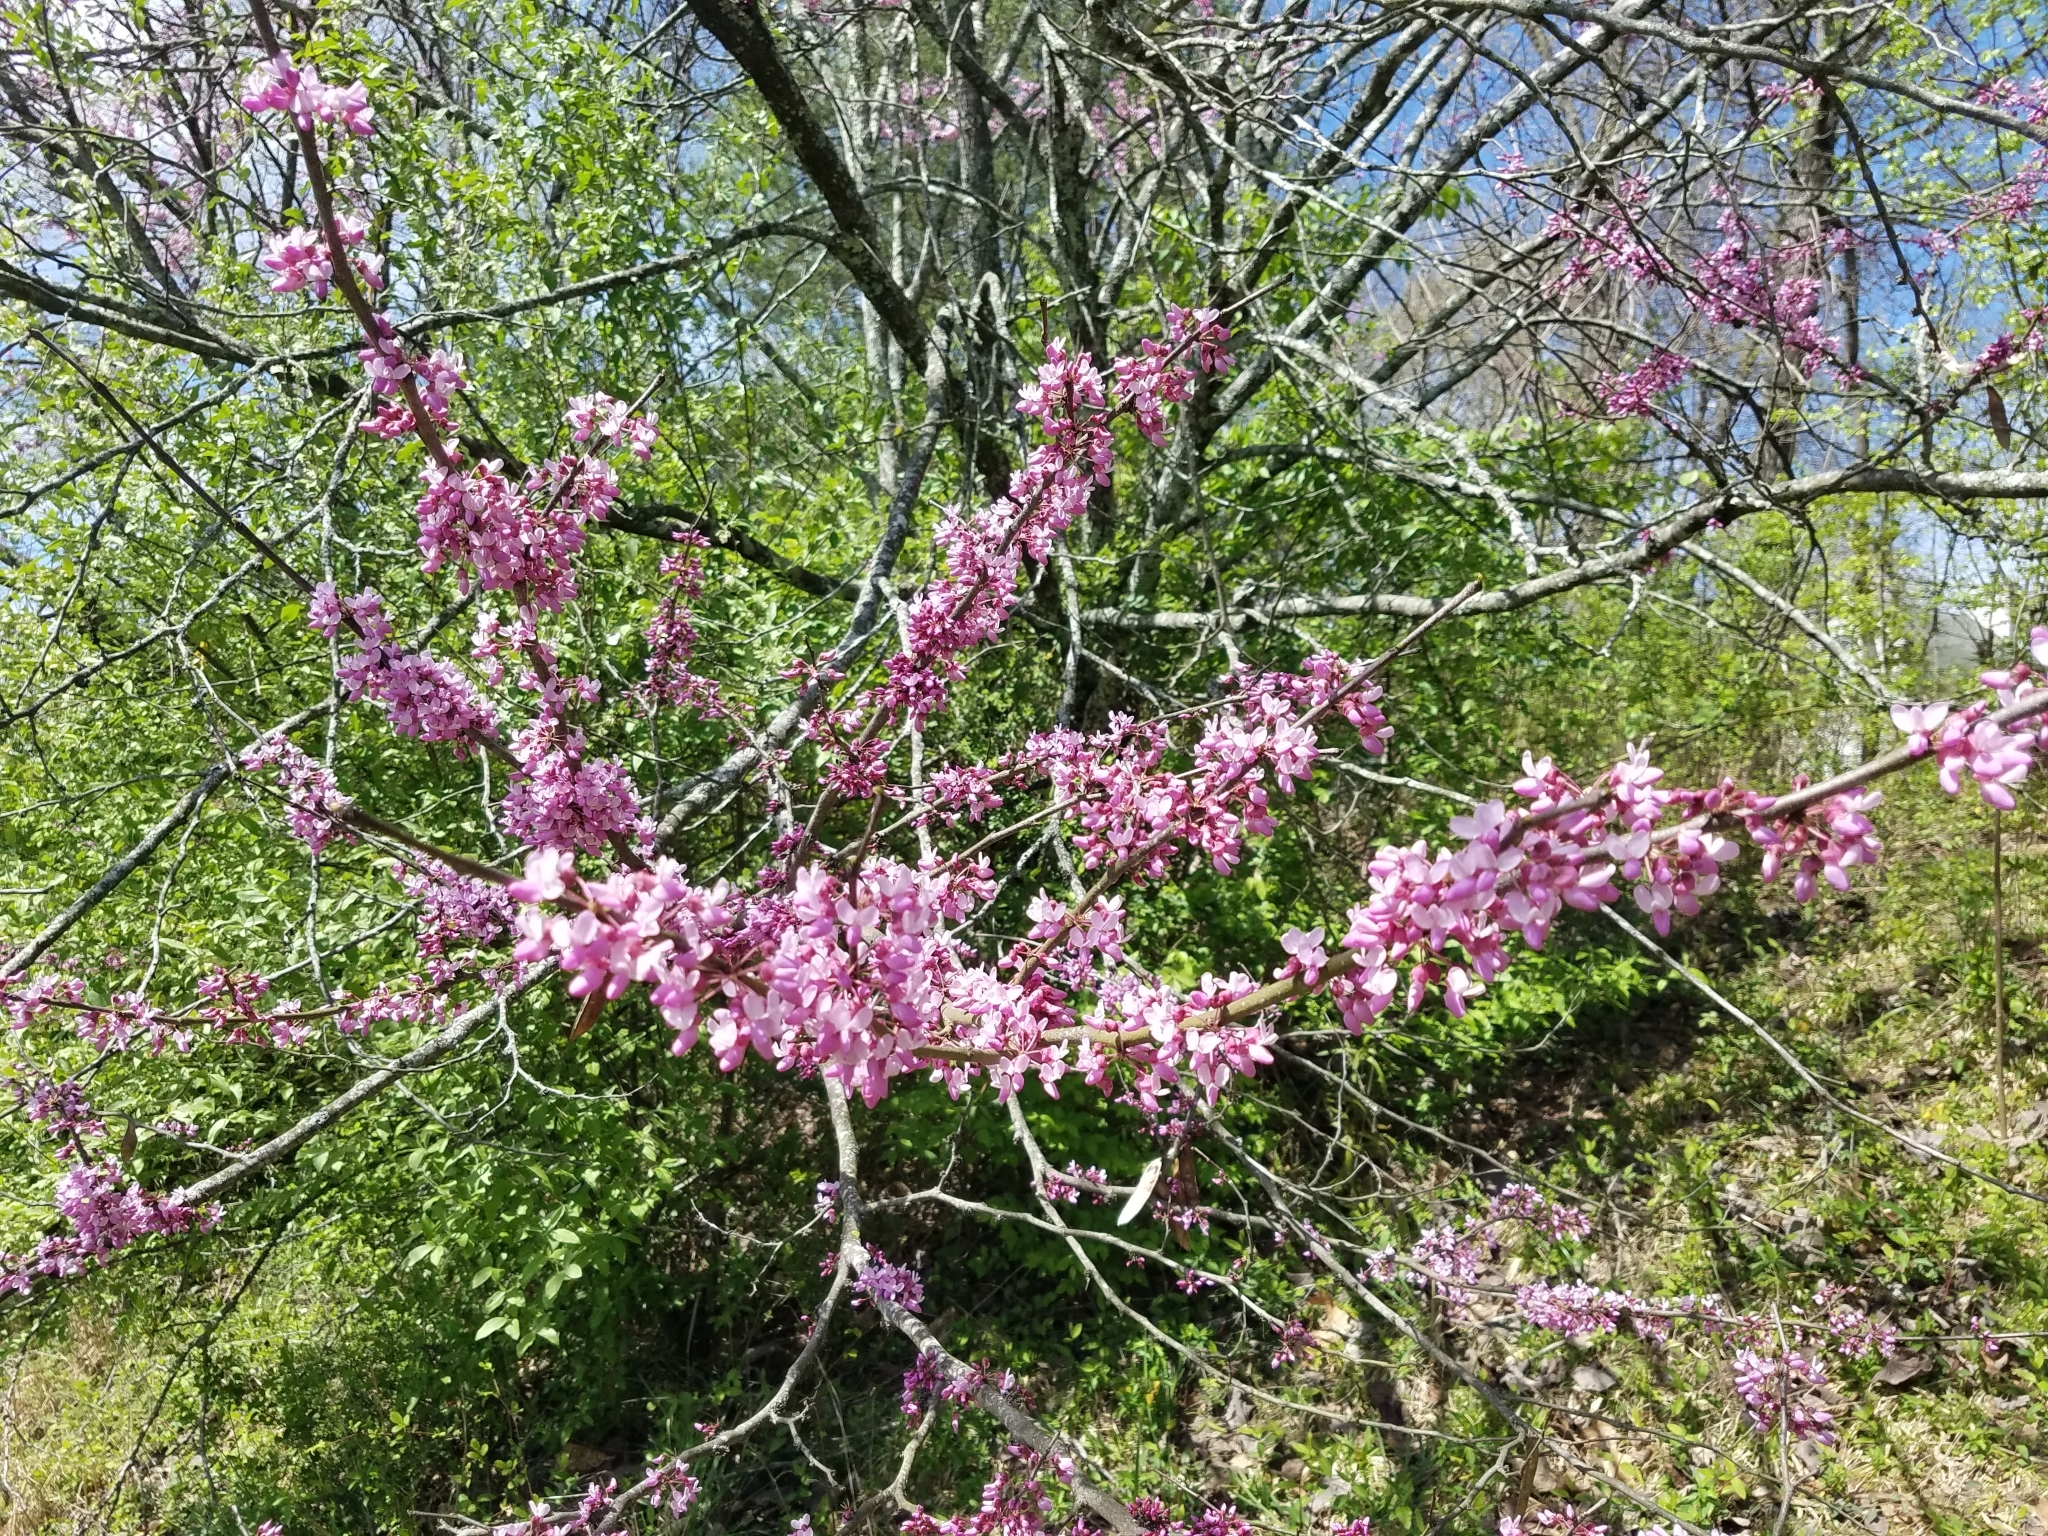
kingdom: Plantae
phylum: Tracheophyta
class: Magnoliopsida
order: Fabales
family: Fabaceae
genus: Cercis
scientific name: Cercis canadensis
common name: Eastern redbud
